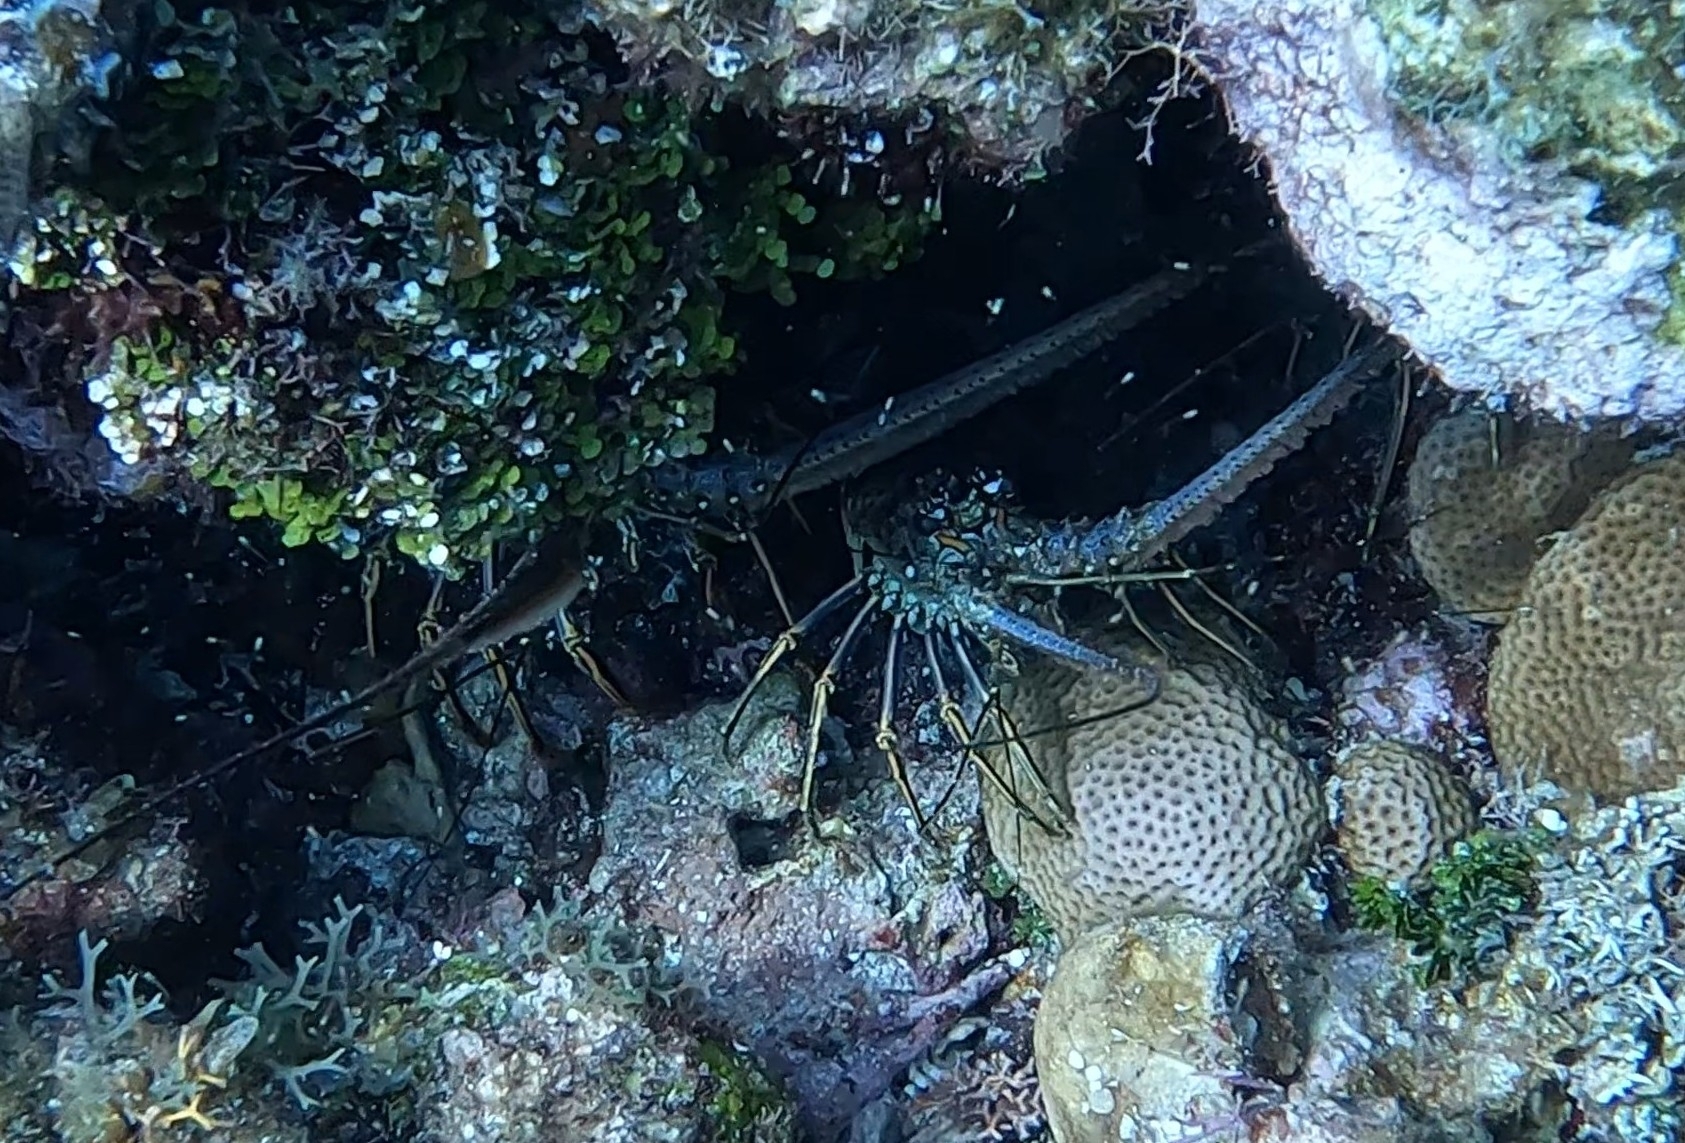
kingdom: Animalia
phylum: Arthropoda
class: Malacostraca
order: Decapoda
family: Palinuridae
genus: Panulirus
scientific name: Panulirus argus
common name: Caribbean spiny lobster
